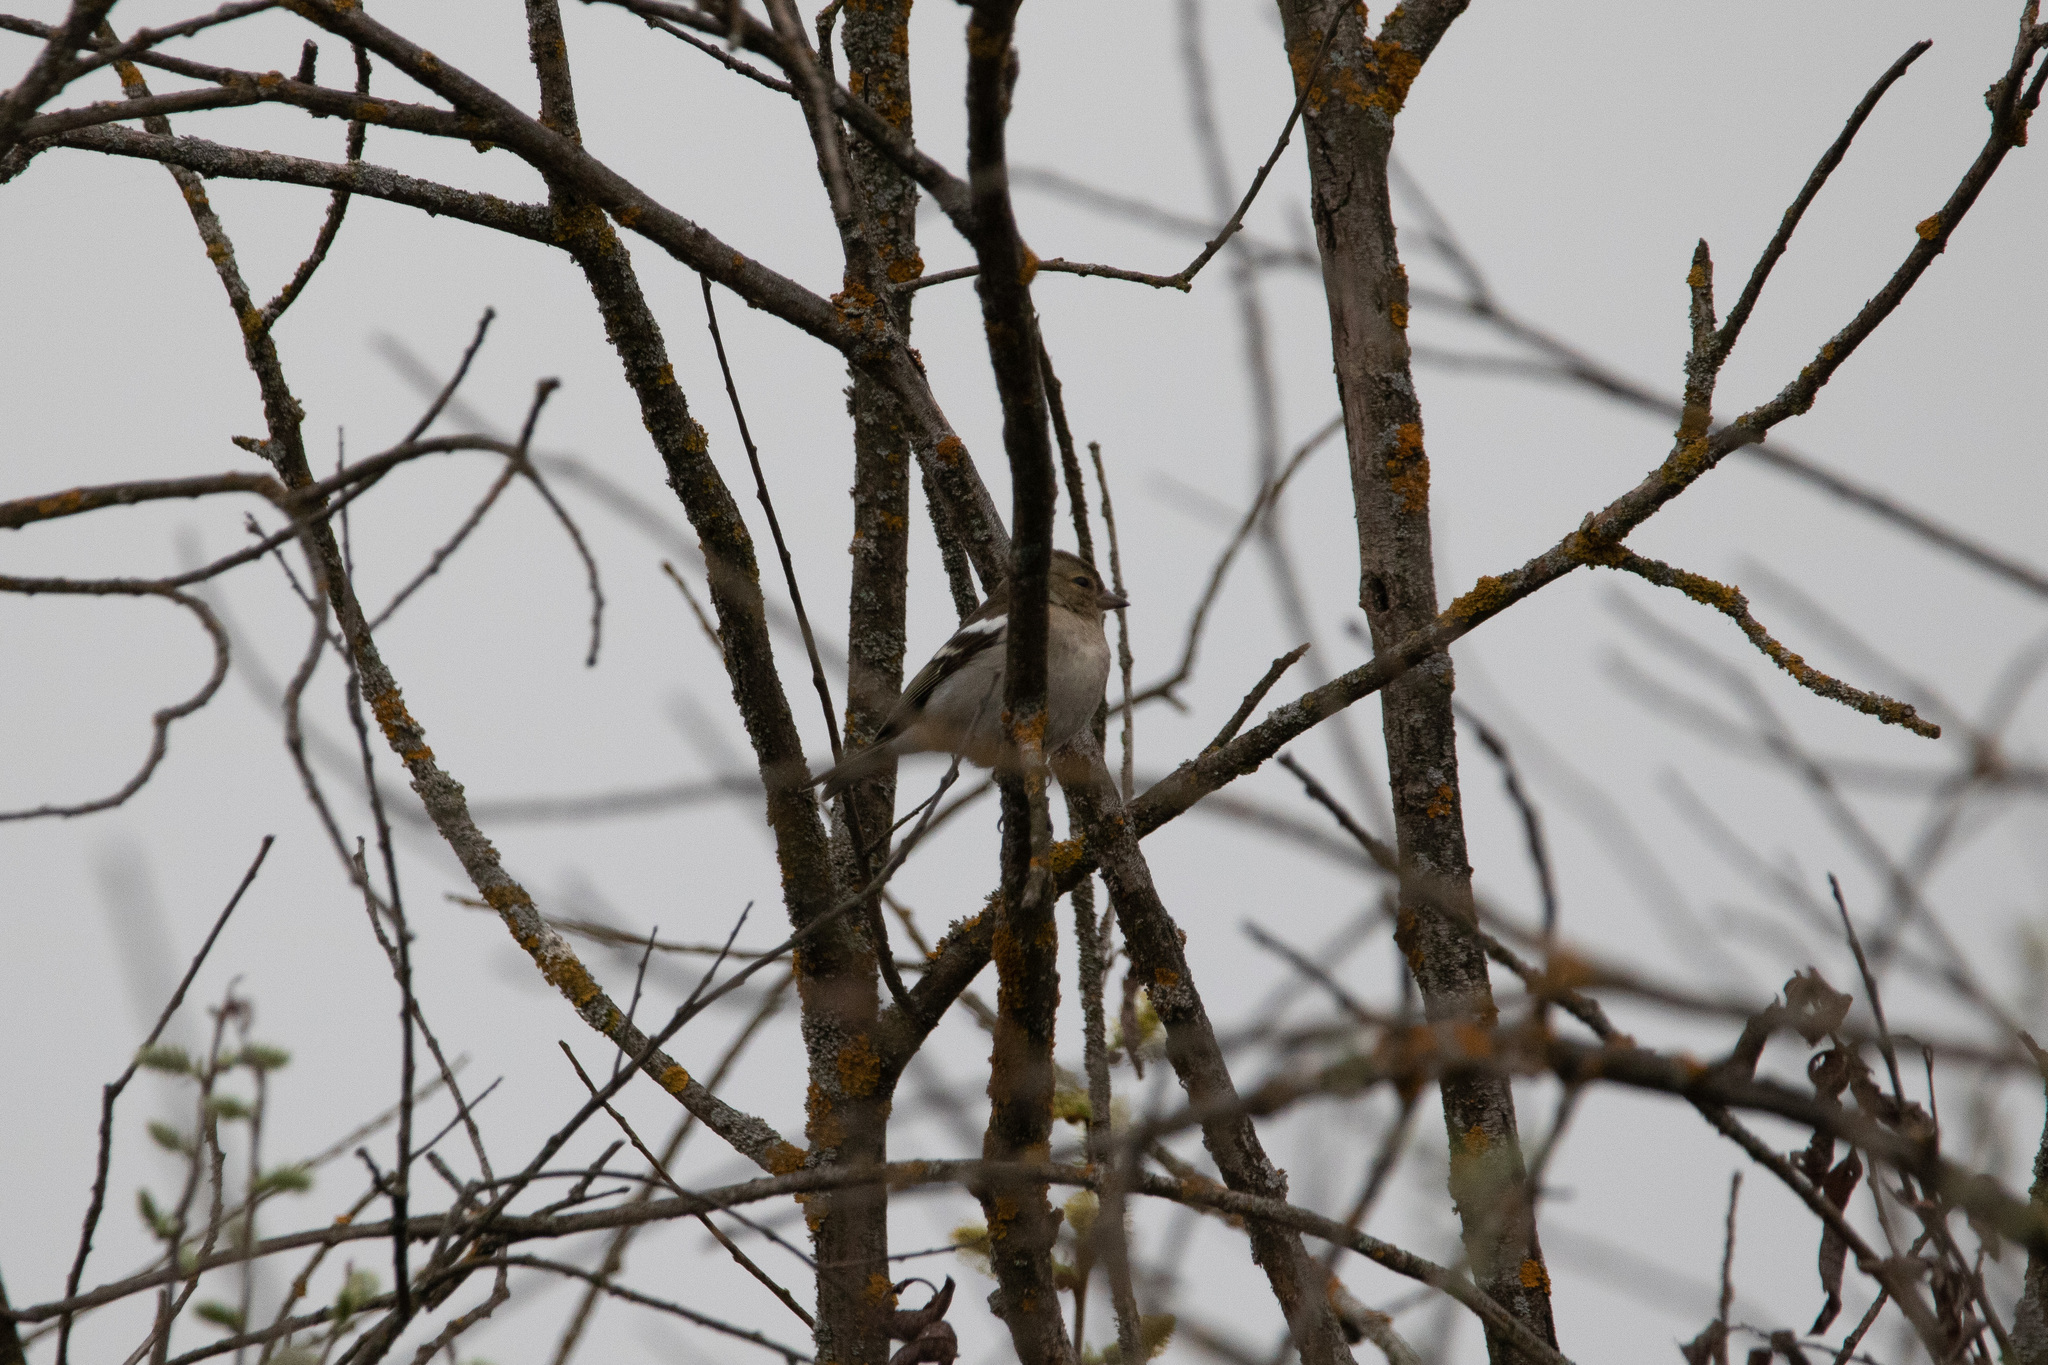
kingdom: Animalia
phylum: Chordata
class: Aves
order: Passeriformes
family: Fringillidae
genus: Fringilla
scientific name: Fringilla coelebs
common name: Common chaffinch
